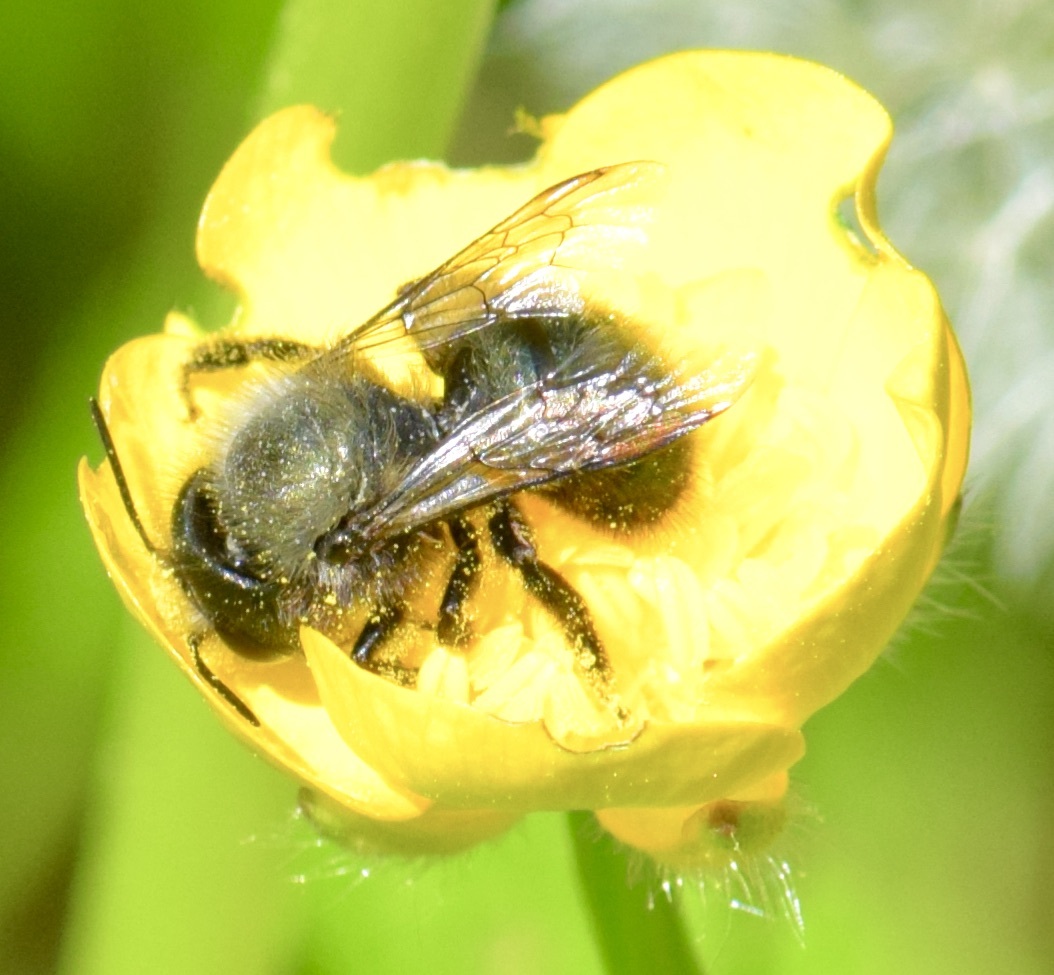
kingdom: Animalia
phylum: Arthropoda
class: Insecta
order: Hymenoptera
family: Megachilidae
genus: Osmia
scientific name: Osmia lignaria
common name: Blue orchard bee
